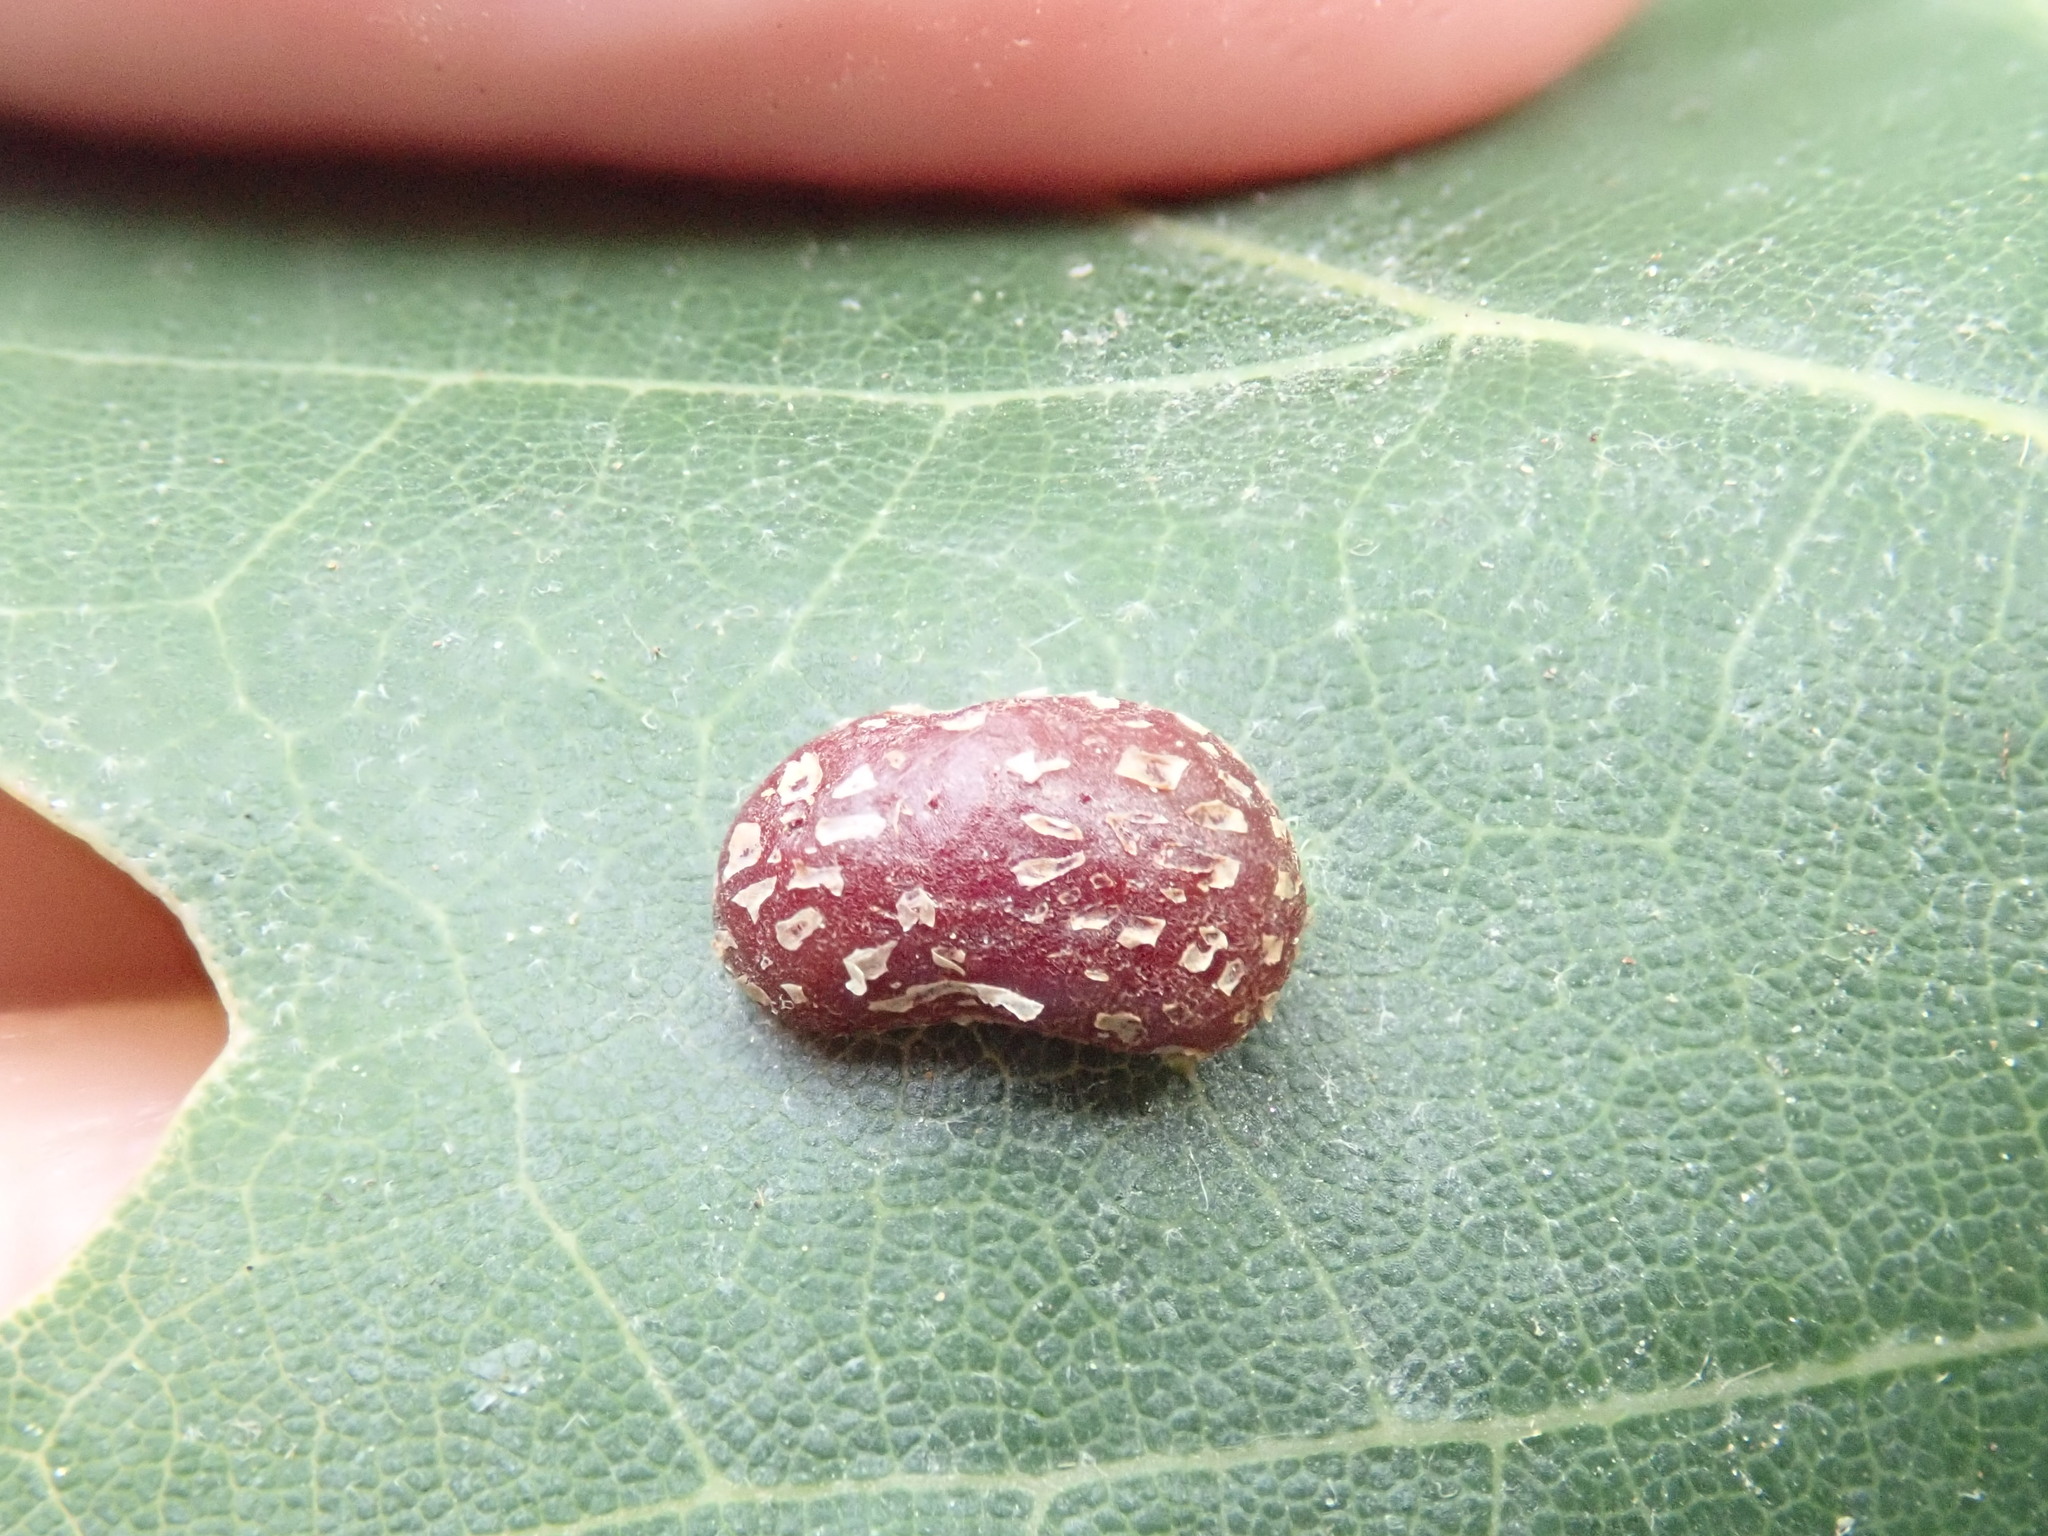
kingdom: Animalia
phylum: Arthropoda
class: Insecta
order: Diptera
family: Cecidomyiidae
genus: Polystepha
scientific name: Polystepha pilulae
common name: Oak leaf gall midge
